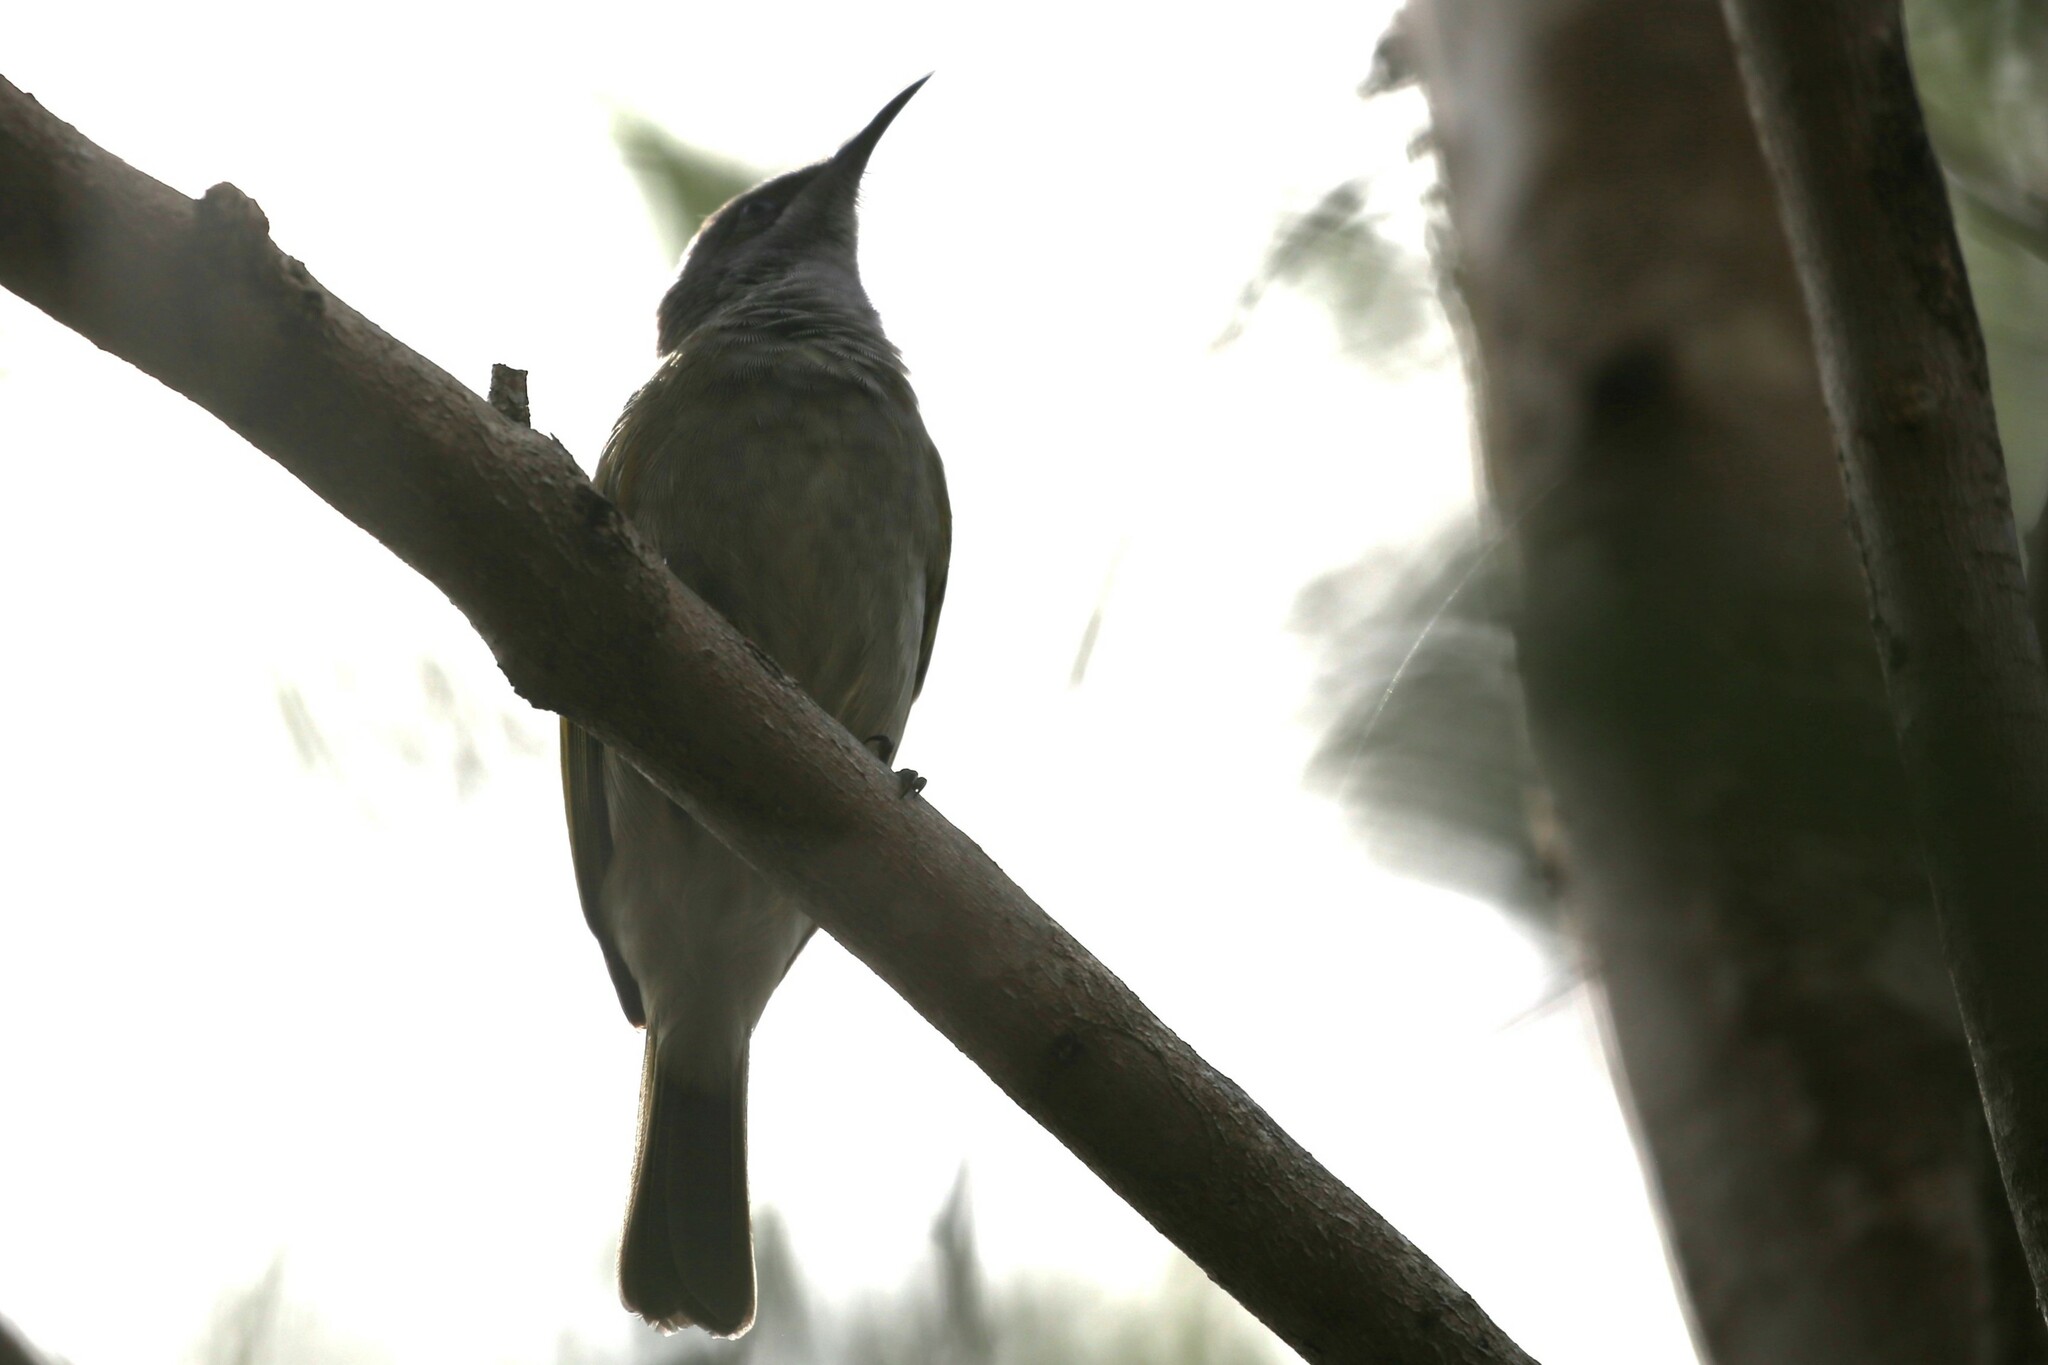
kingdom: Animalia
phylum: Chordata
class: Aves
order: Passeriformes
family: Meliphagidae
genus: Lichmera
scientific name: Lichmera indistincta
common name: Brown honeyeater
